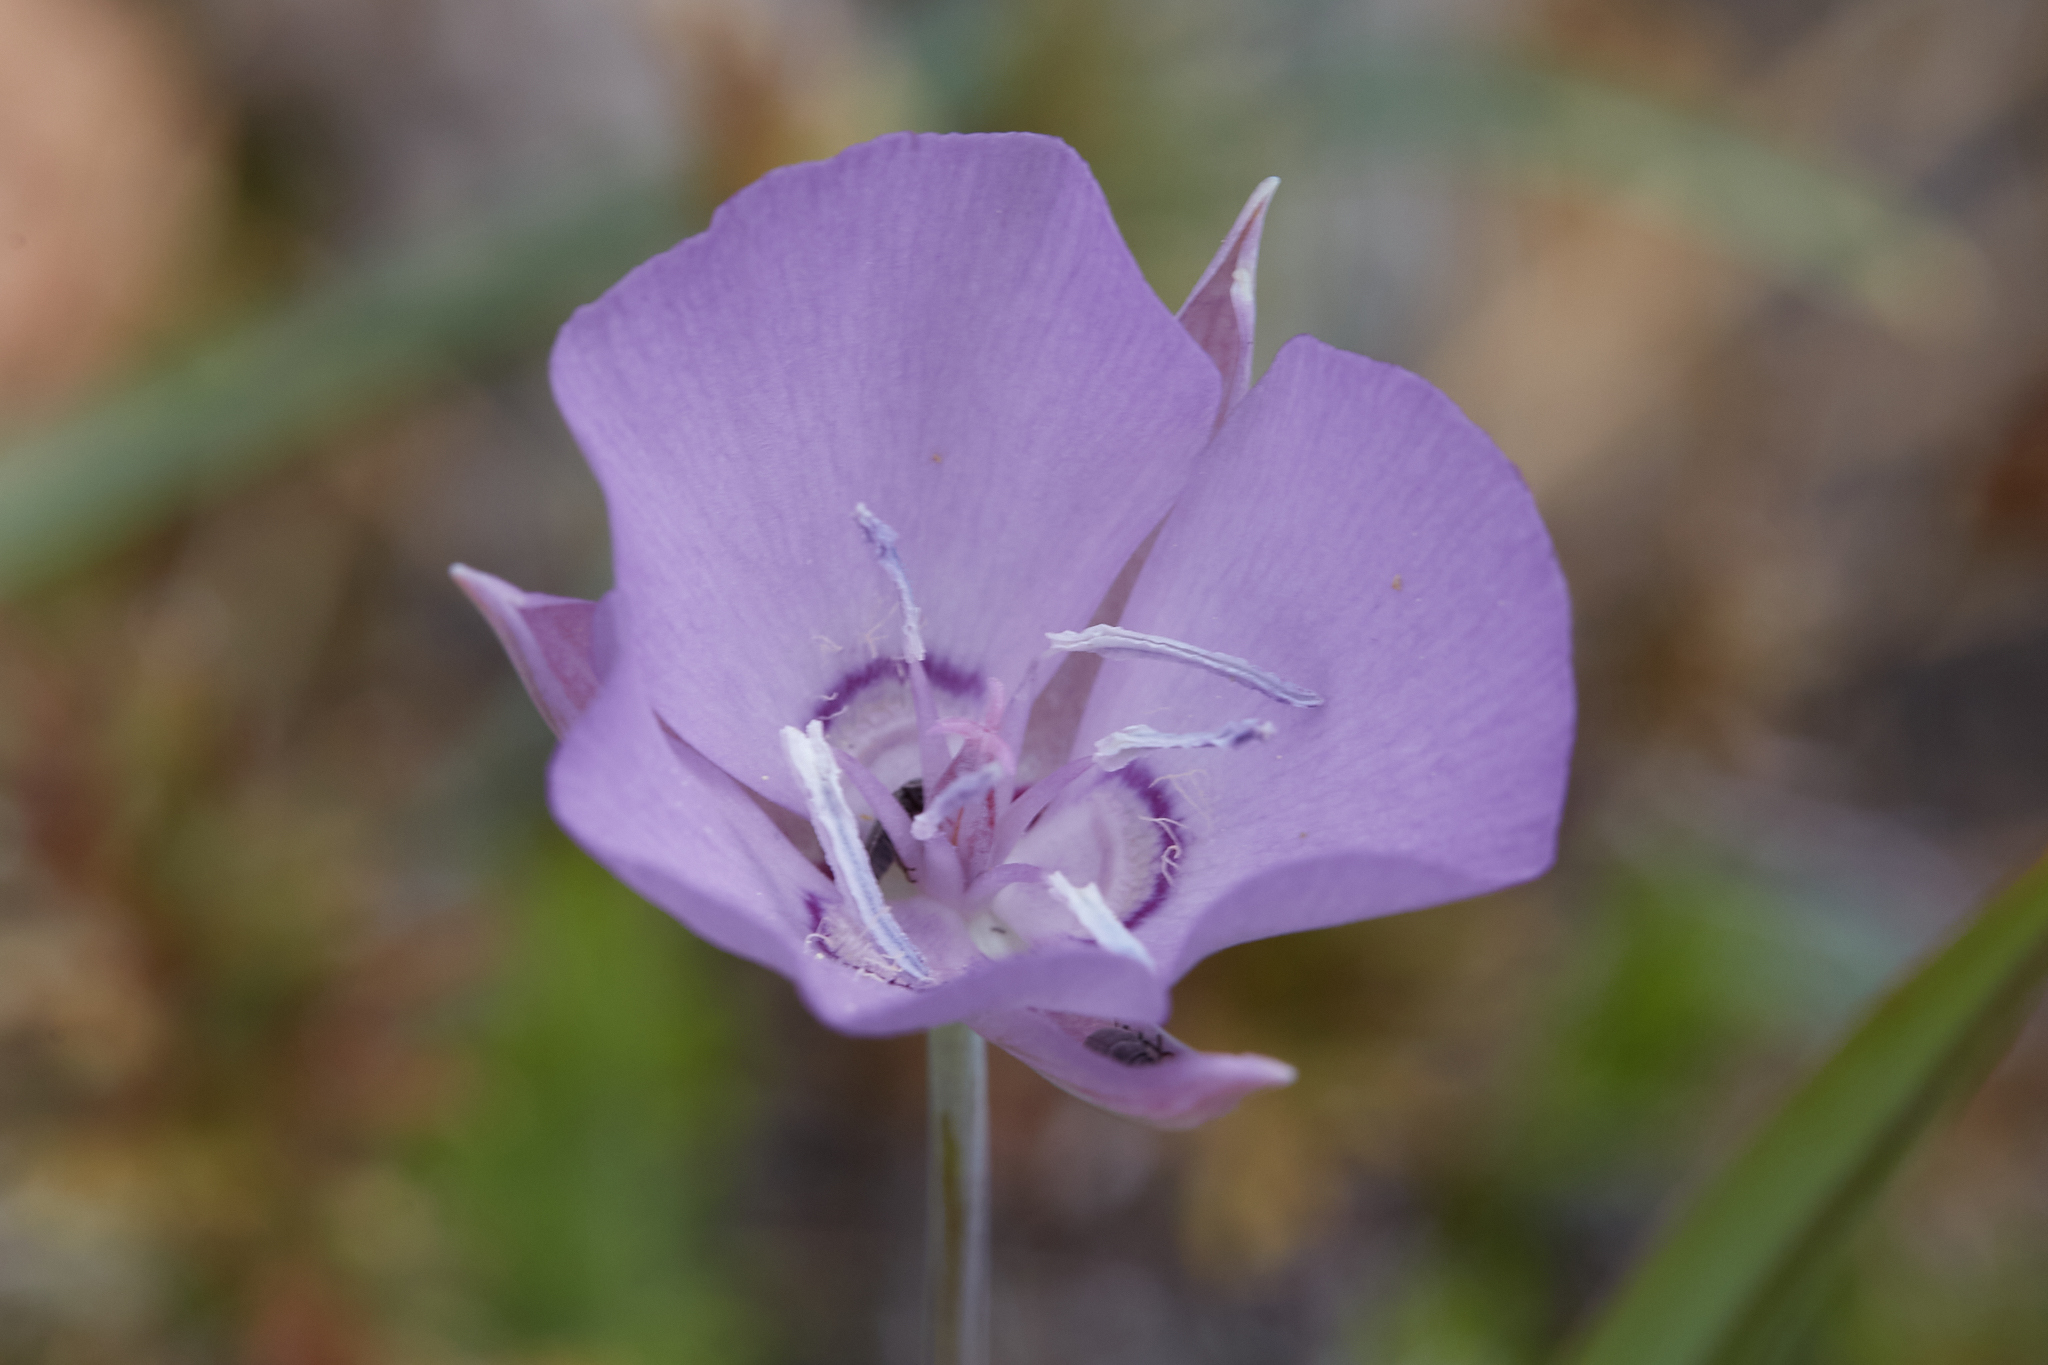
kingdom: Plantae
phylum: Tracheophyta
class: Liliopsida
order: Liliales
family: Liliaceae
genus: Calochortus
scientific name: Calochortus nudus
